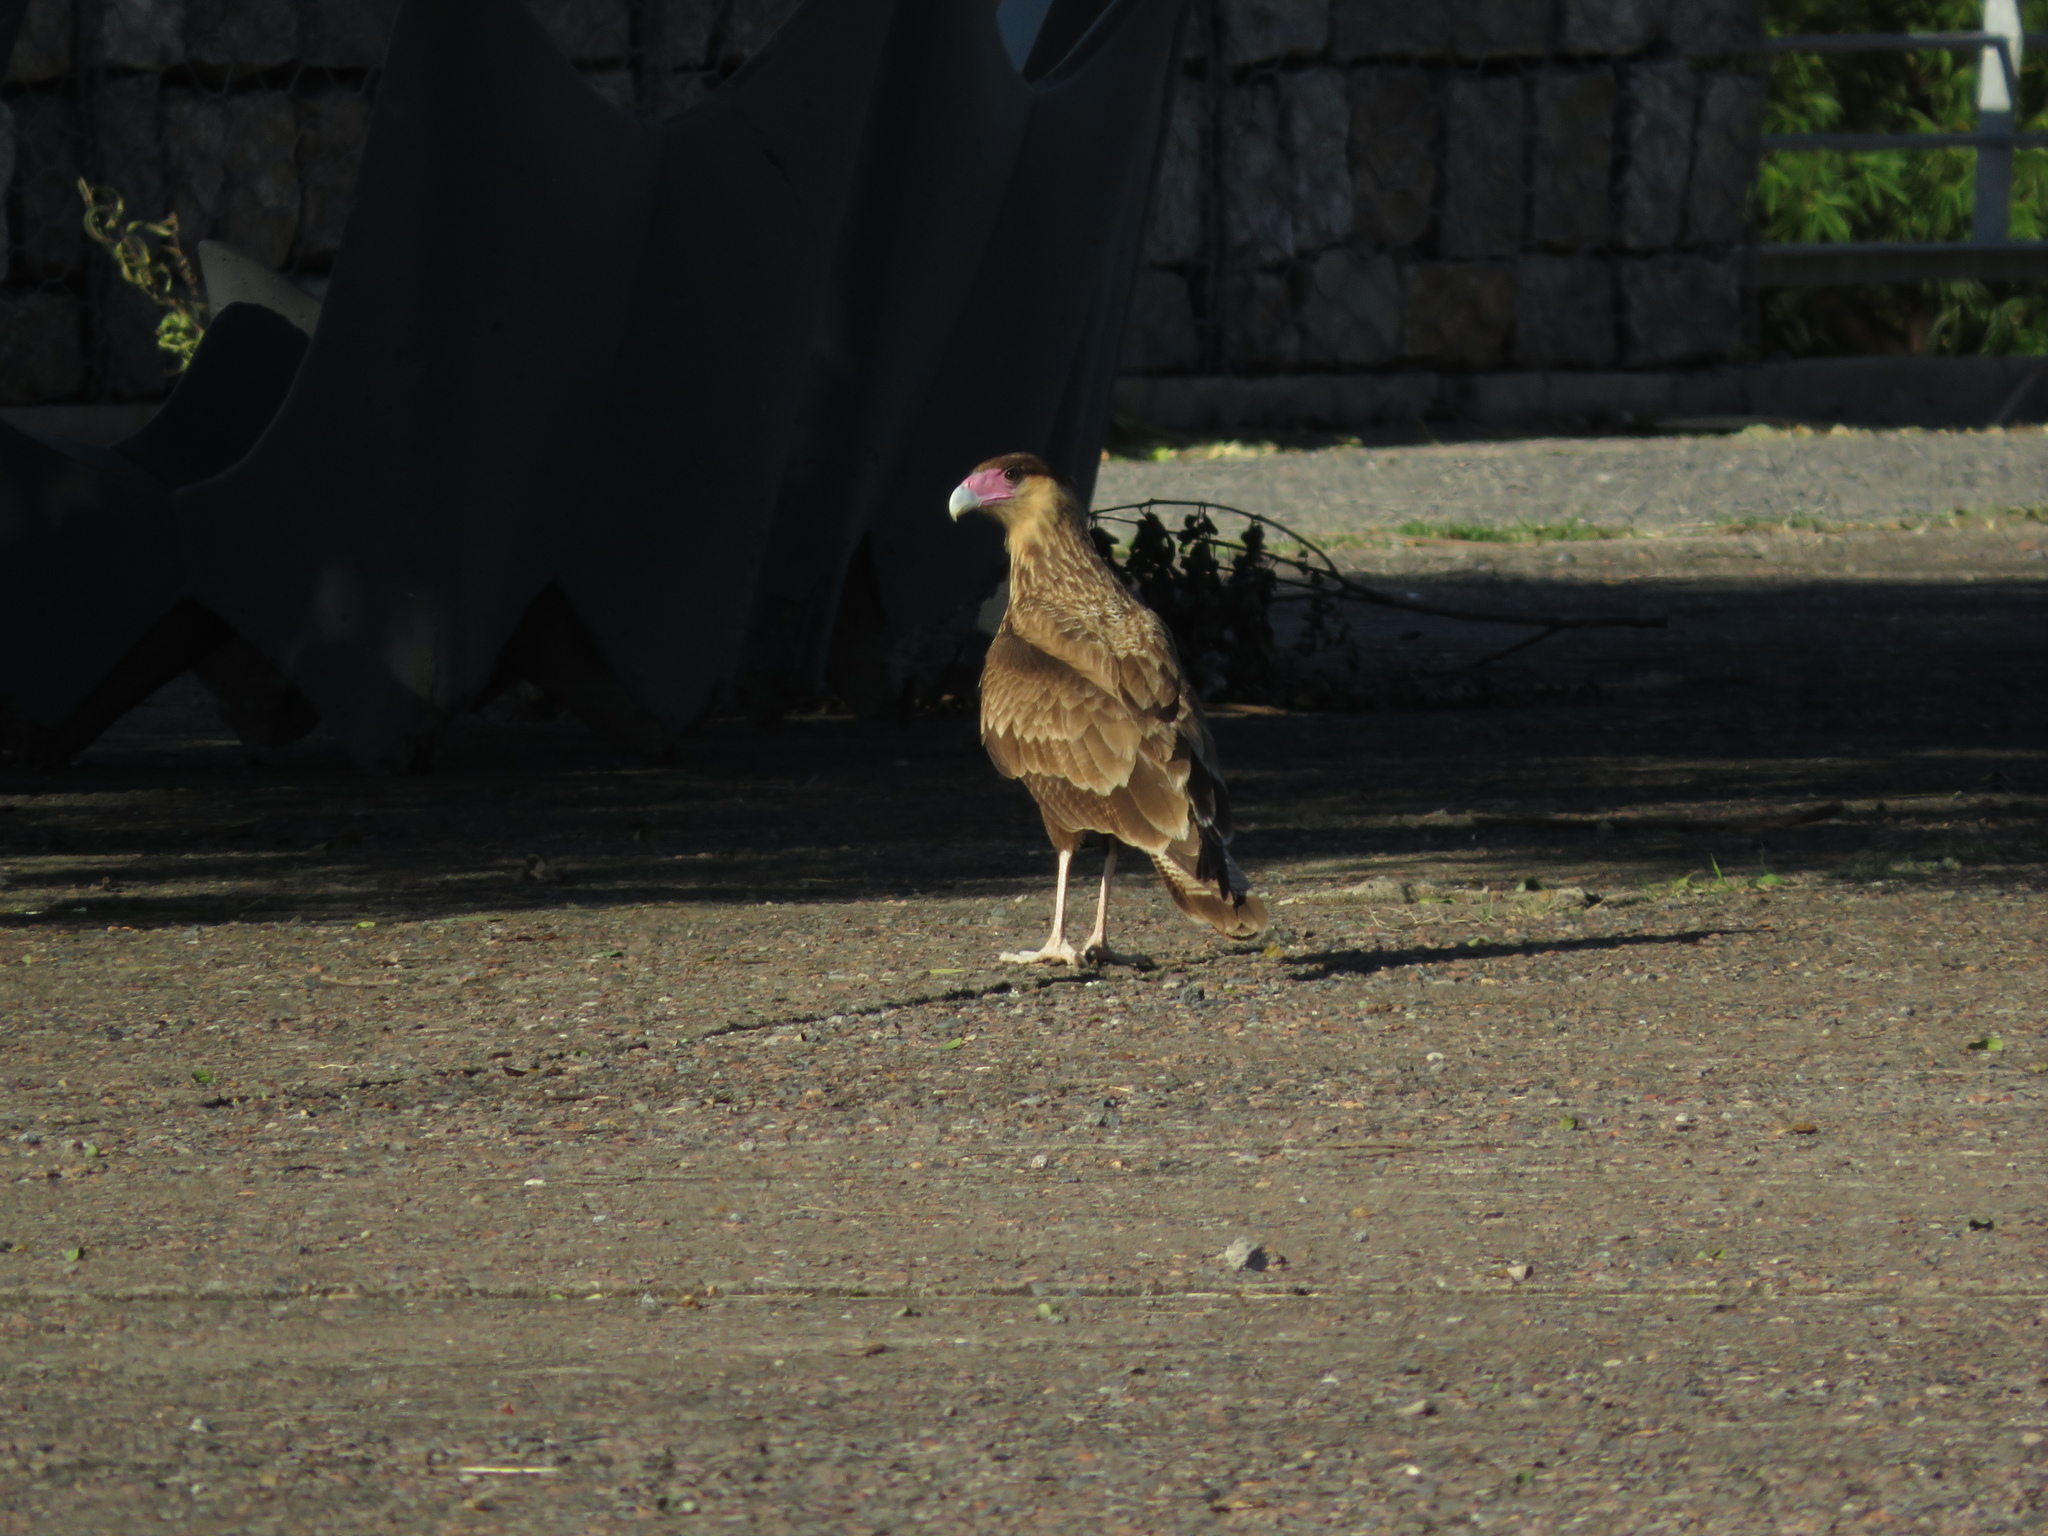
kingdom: Animalia
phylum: Chordata
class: Aves
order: Falconiformes
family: Falconidae
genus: Caracara
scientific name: Caracara plancus
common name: Southern caracara
